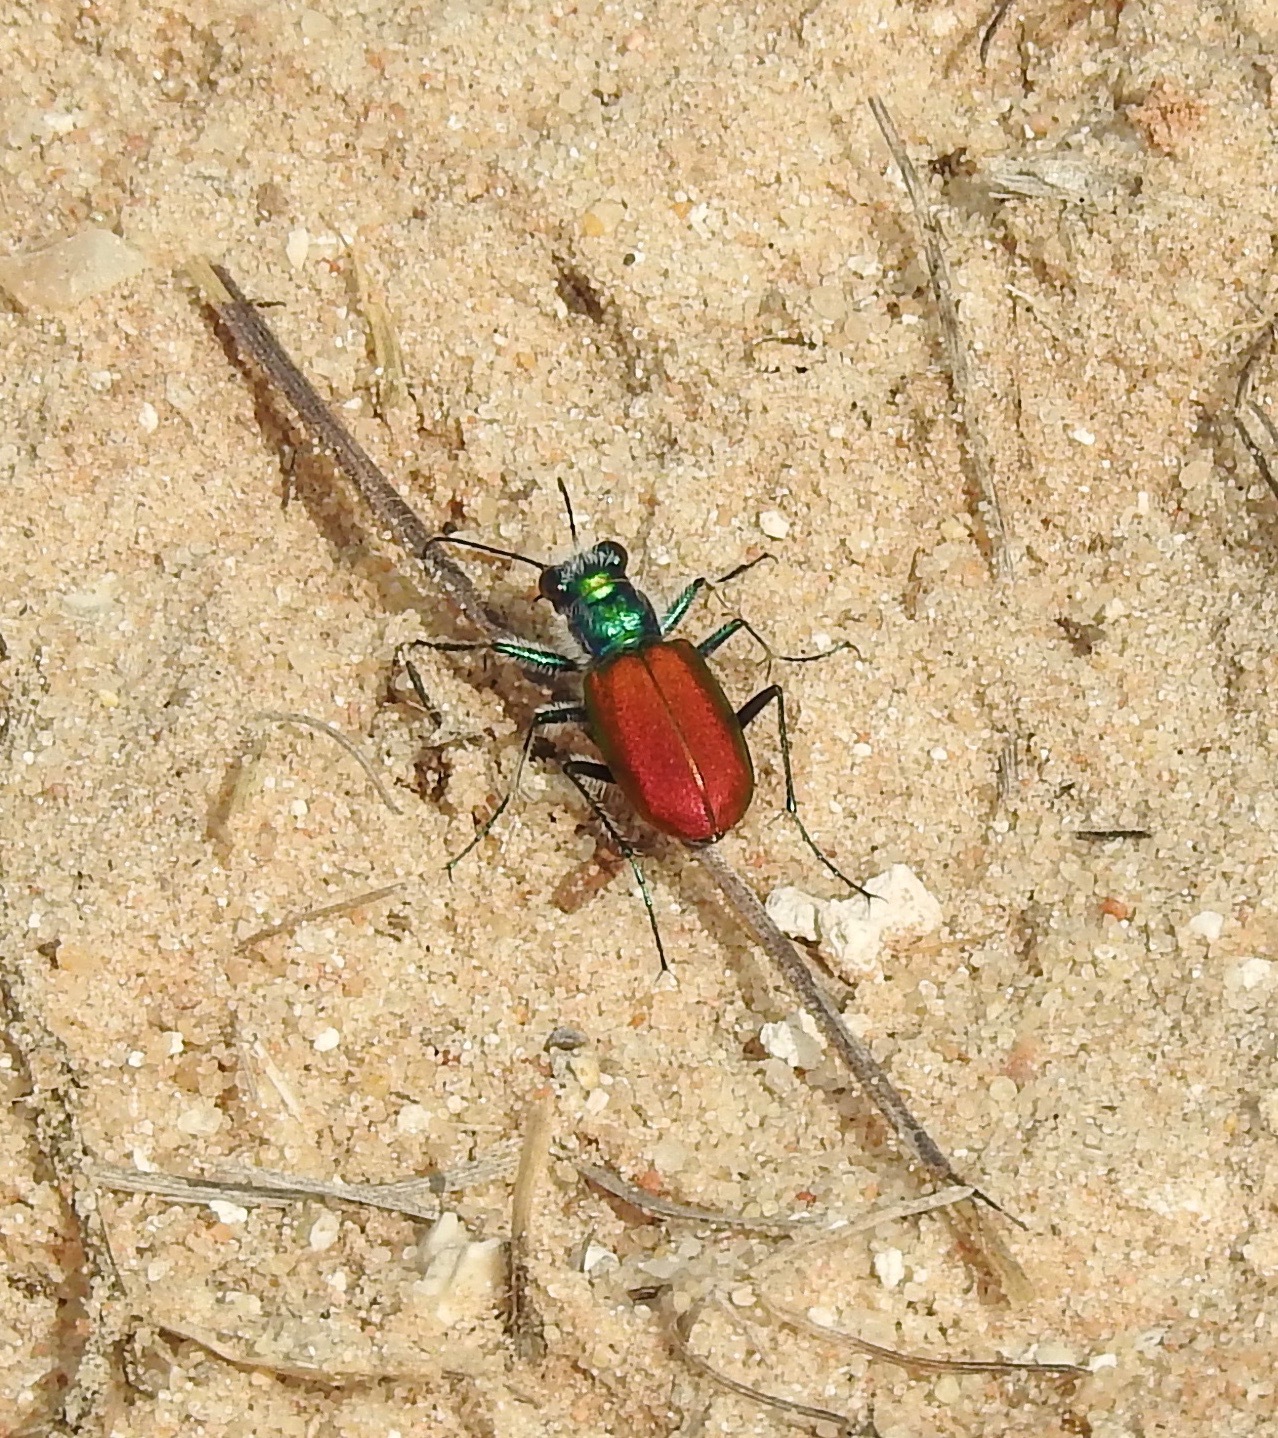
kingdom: Animalia
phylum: Arthropoda
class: Insecta
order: Coleoptera
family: Carabidae
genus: Cicindela
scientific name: Cicindela scutellaris
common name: Festive tiger beetle
